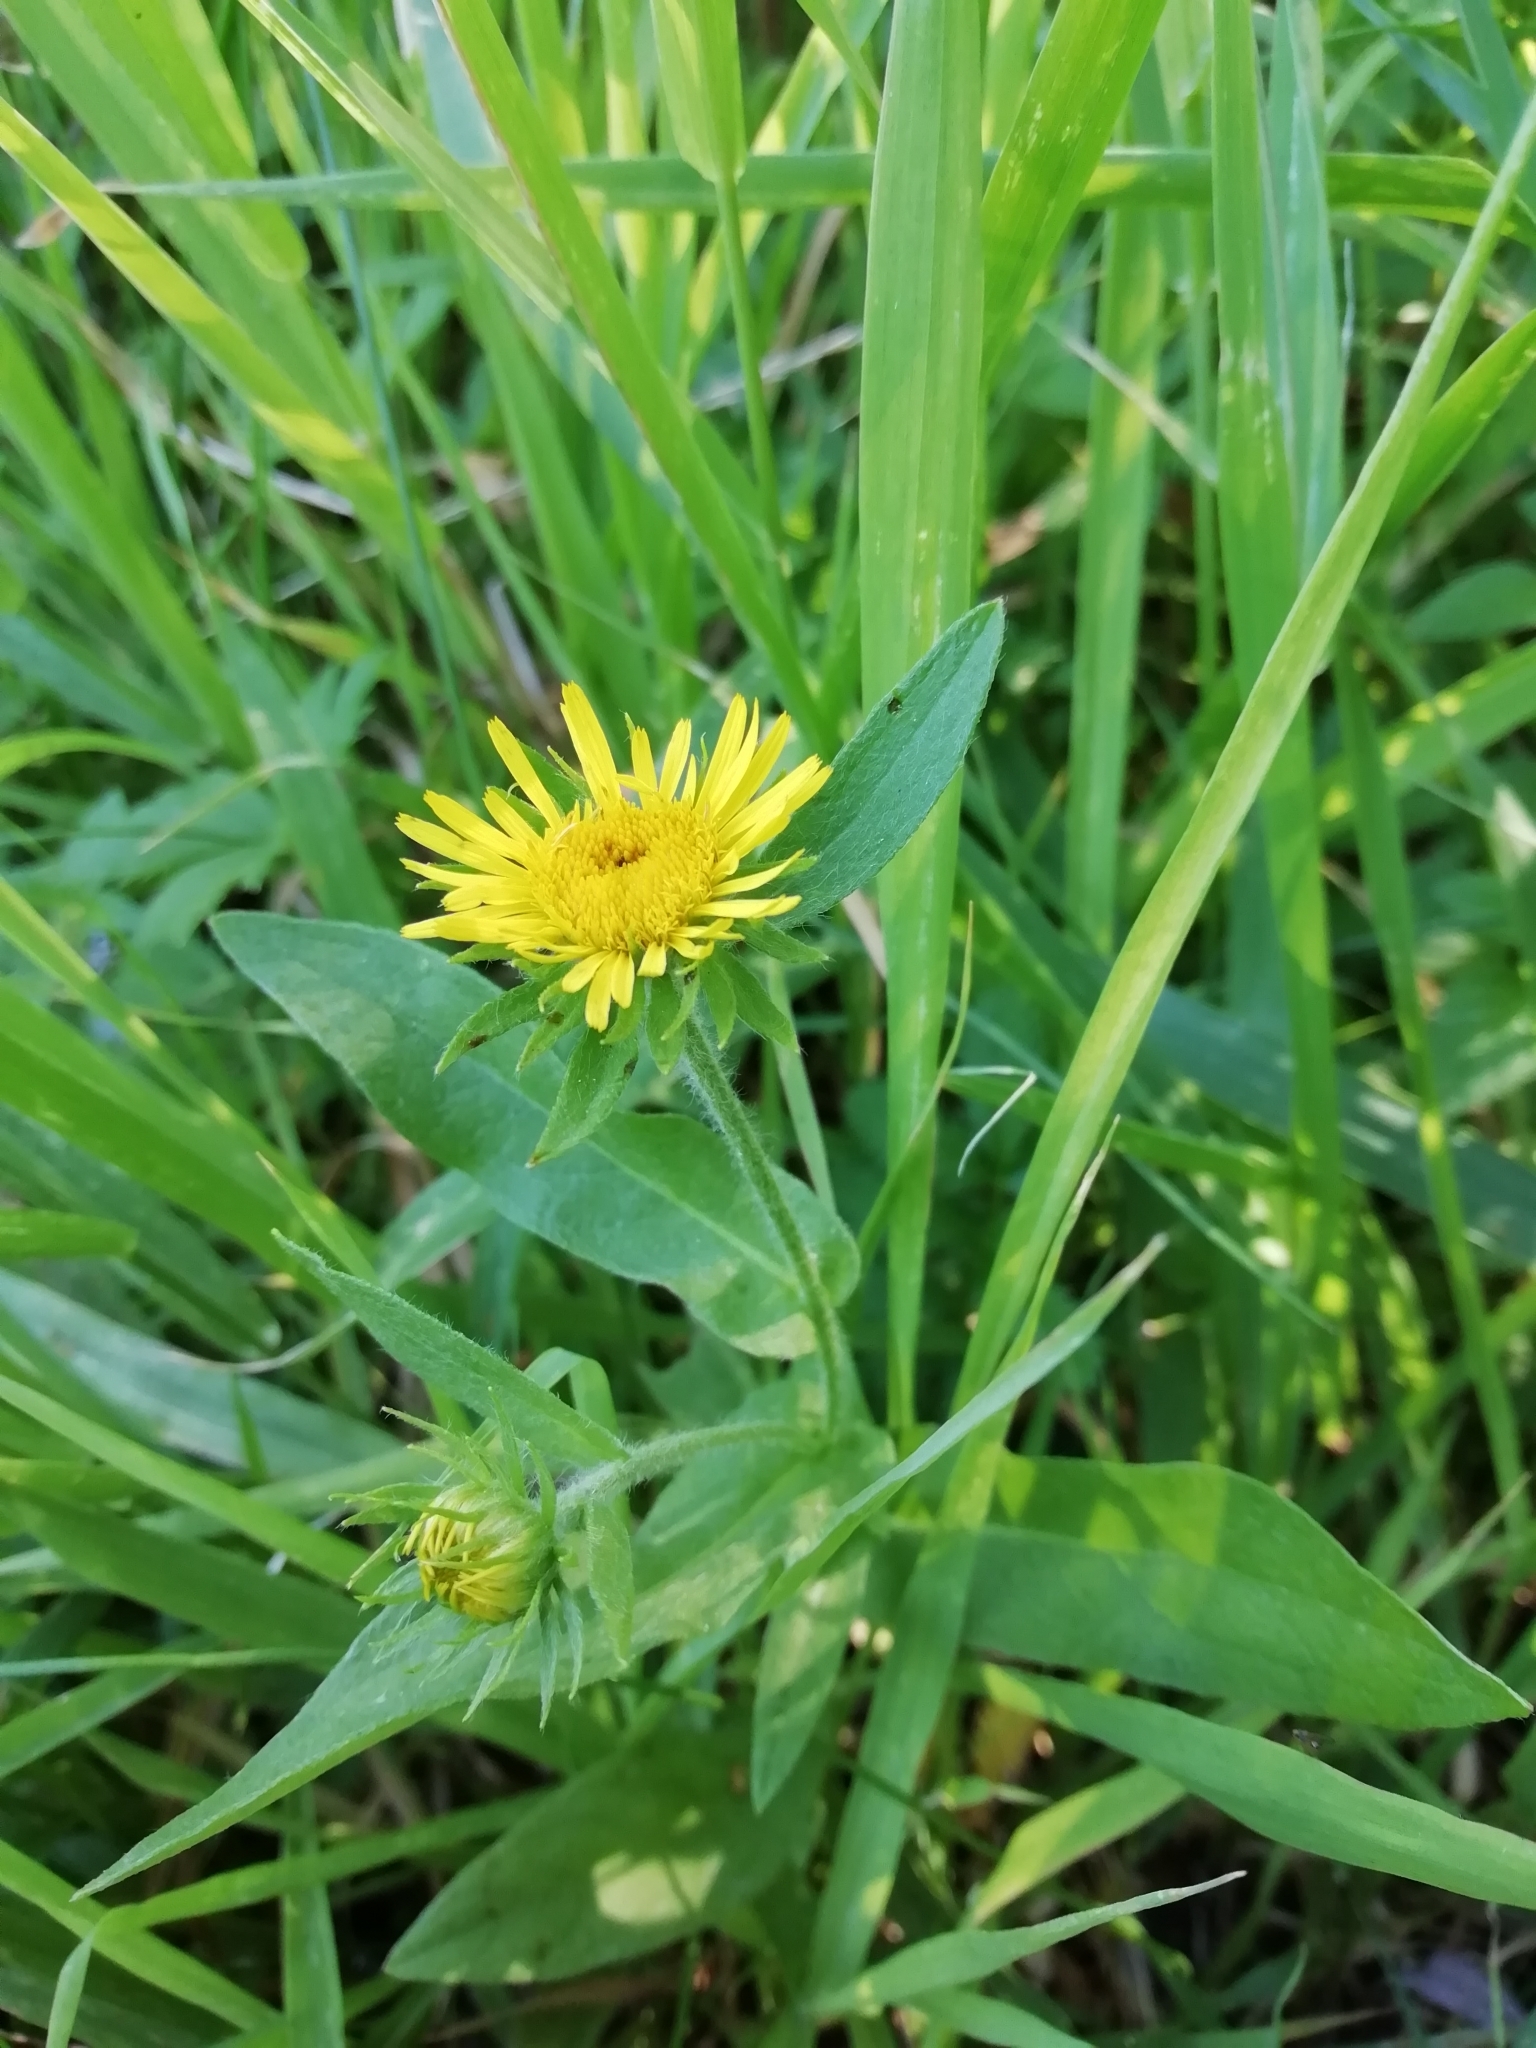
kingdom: Plantae
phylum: Tracheophyta
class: Magnoliopsida
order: Asterales
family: Asteraceae
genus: Pentanema
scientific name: Pentanema britannicum
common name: British elecampane
